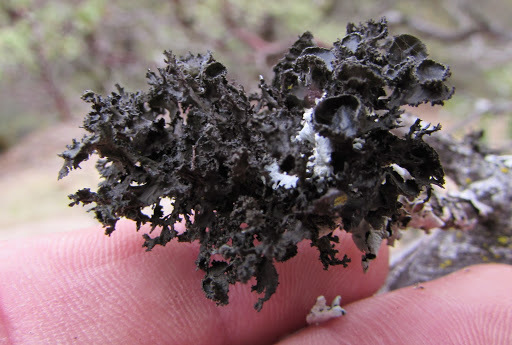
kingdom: Fungi
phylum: Ascomycota
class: Lecanoromycetes
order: Lecanorales
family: Parmeliaceae
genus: Nephromopsis
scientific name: Nephromopsis merrillii
